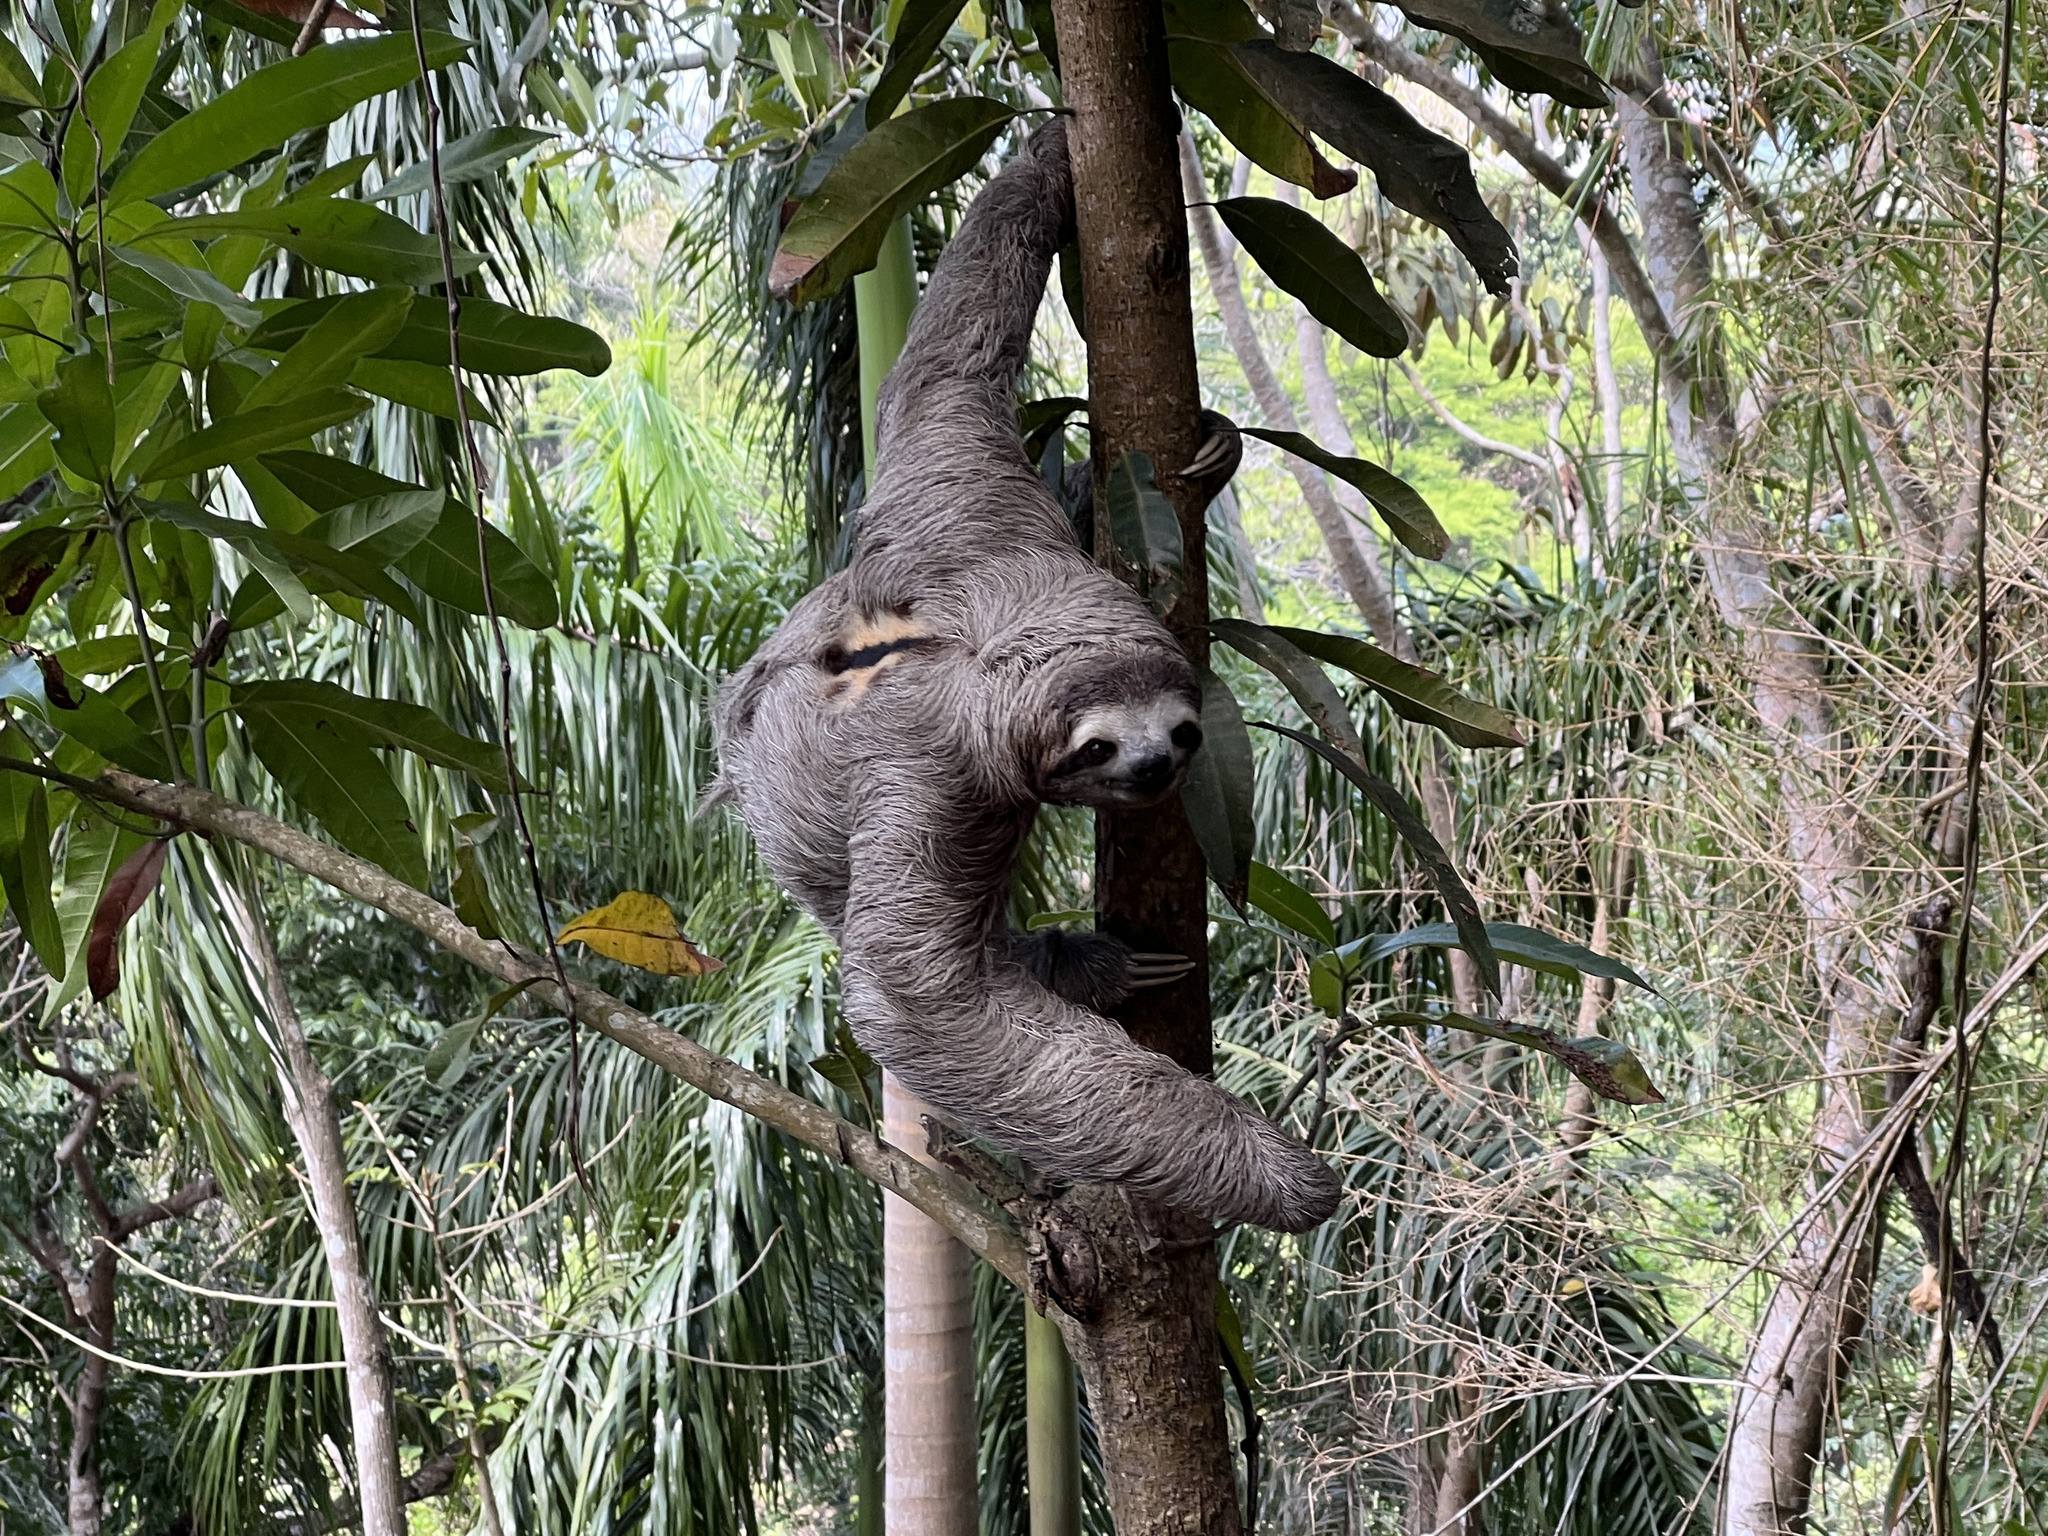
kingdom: Animalia
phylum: Chordata
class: Mammalia
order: Pilosa
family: Bradypodidae
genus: Bradypus
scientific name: Bradypus variegatus
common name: Brown-throated three-toed sloth
